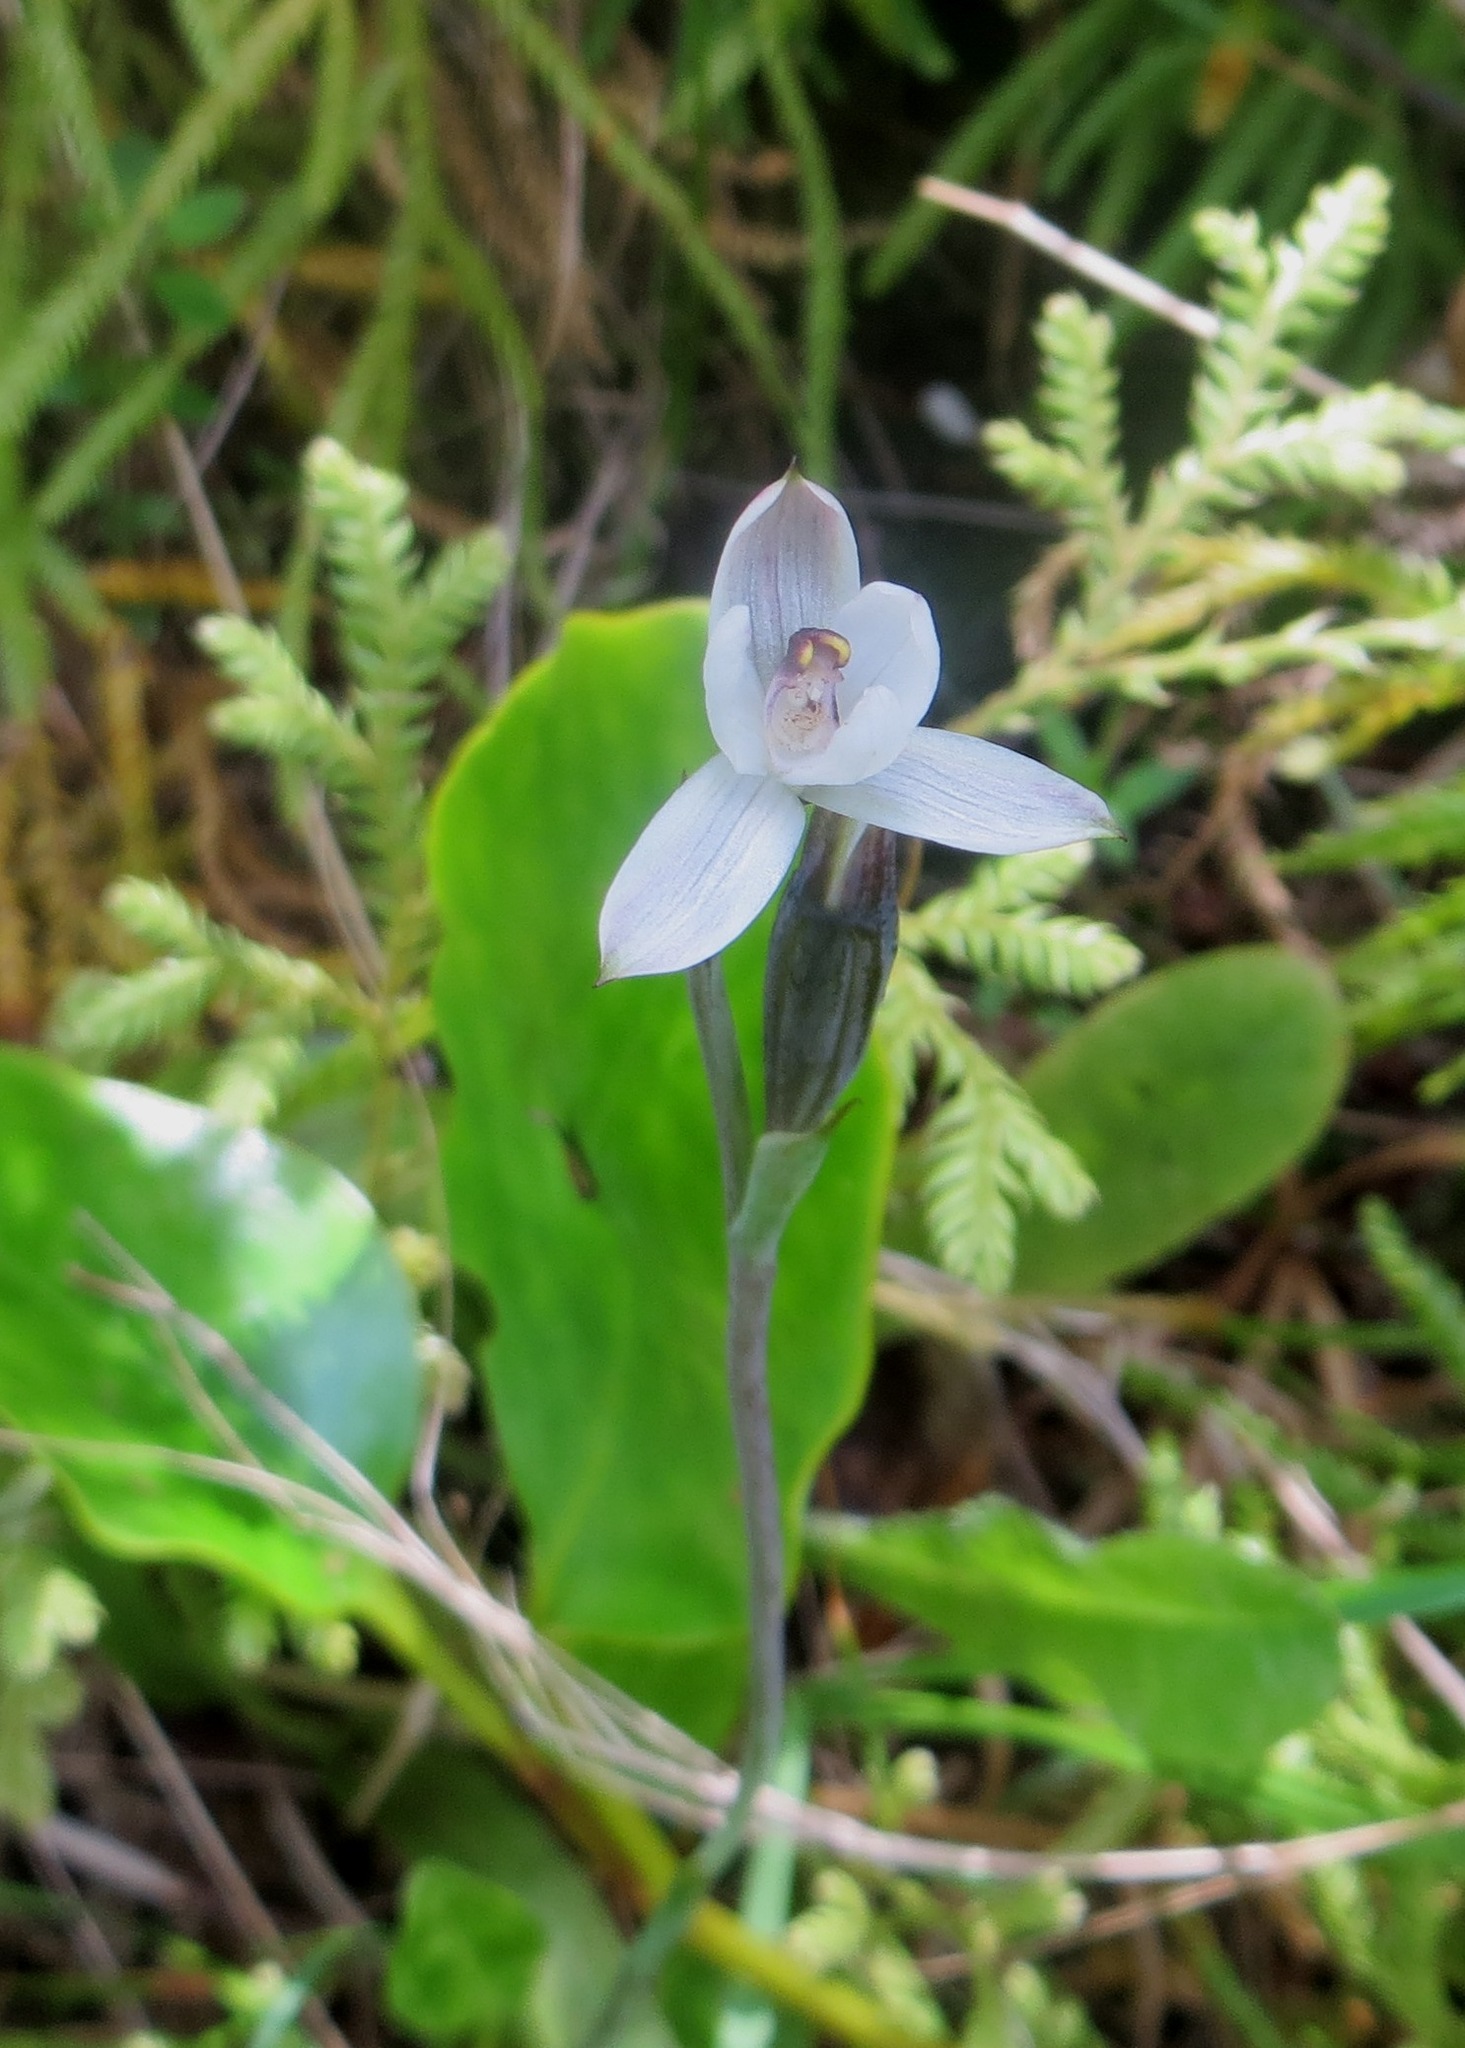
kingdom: Plantae
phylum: Tracheophyta
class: Liliopsida
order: Asparagales
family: Orchidaceae
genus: Thelymitra
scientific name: Thelymitra longifolia
